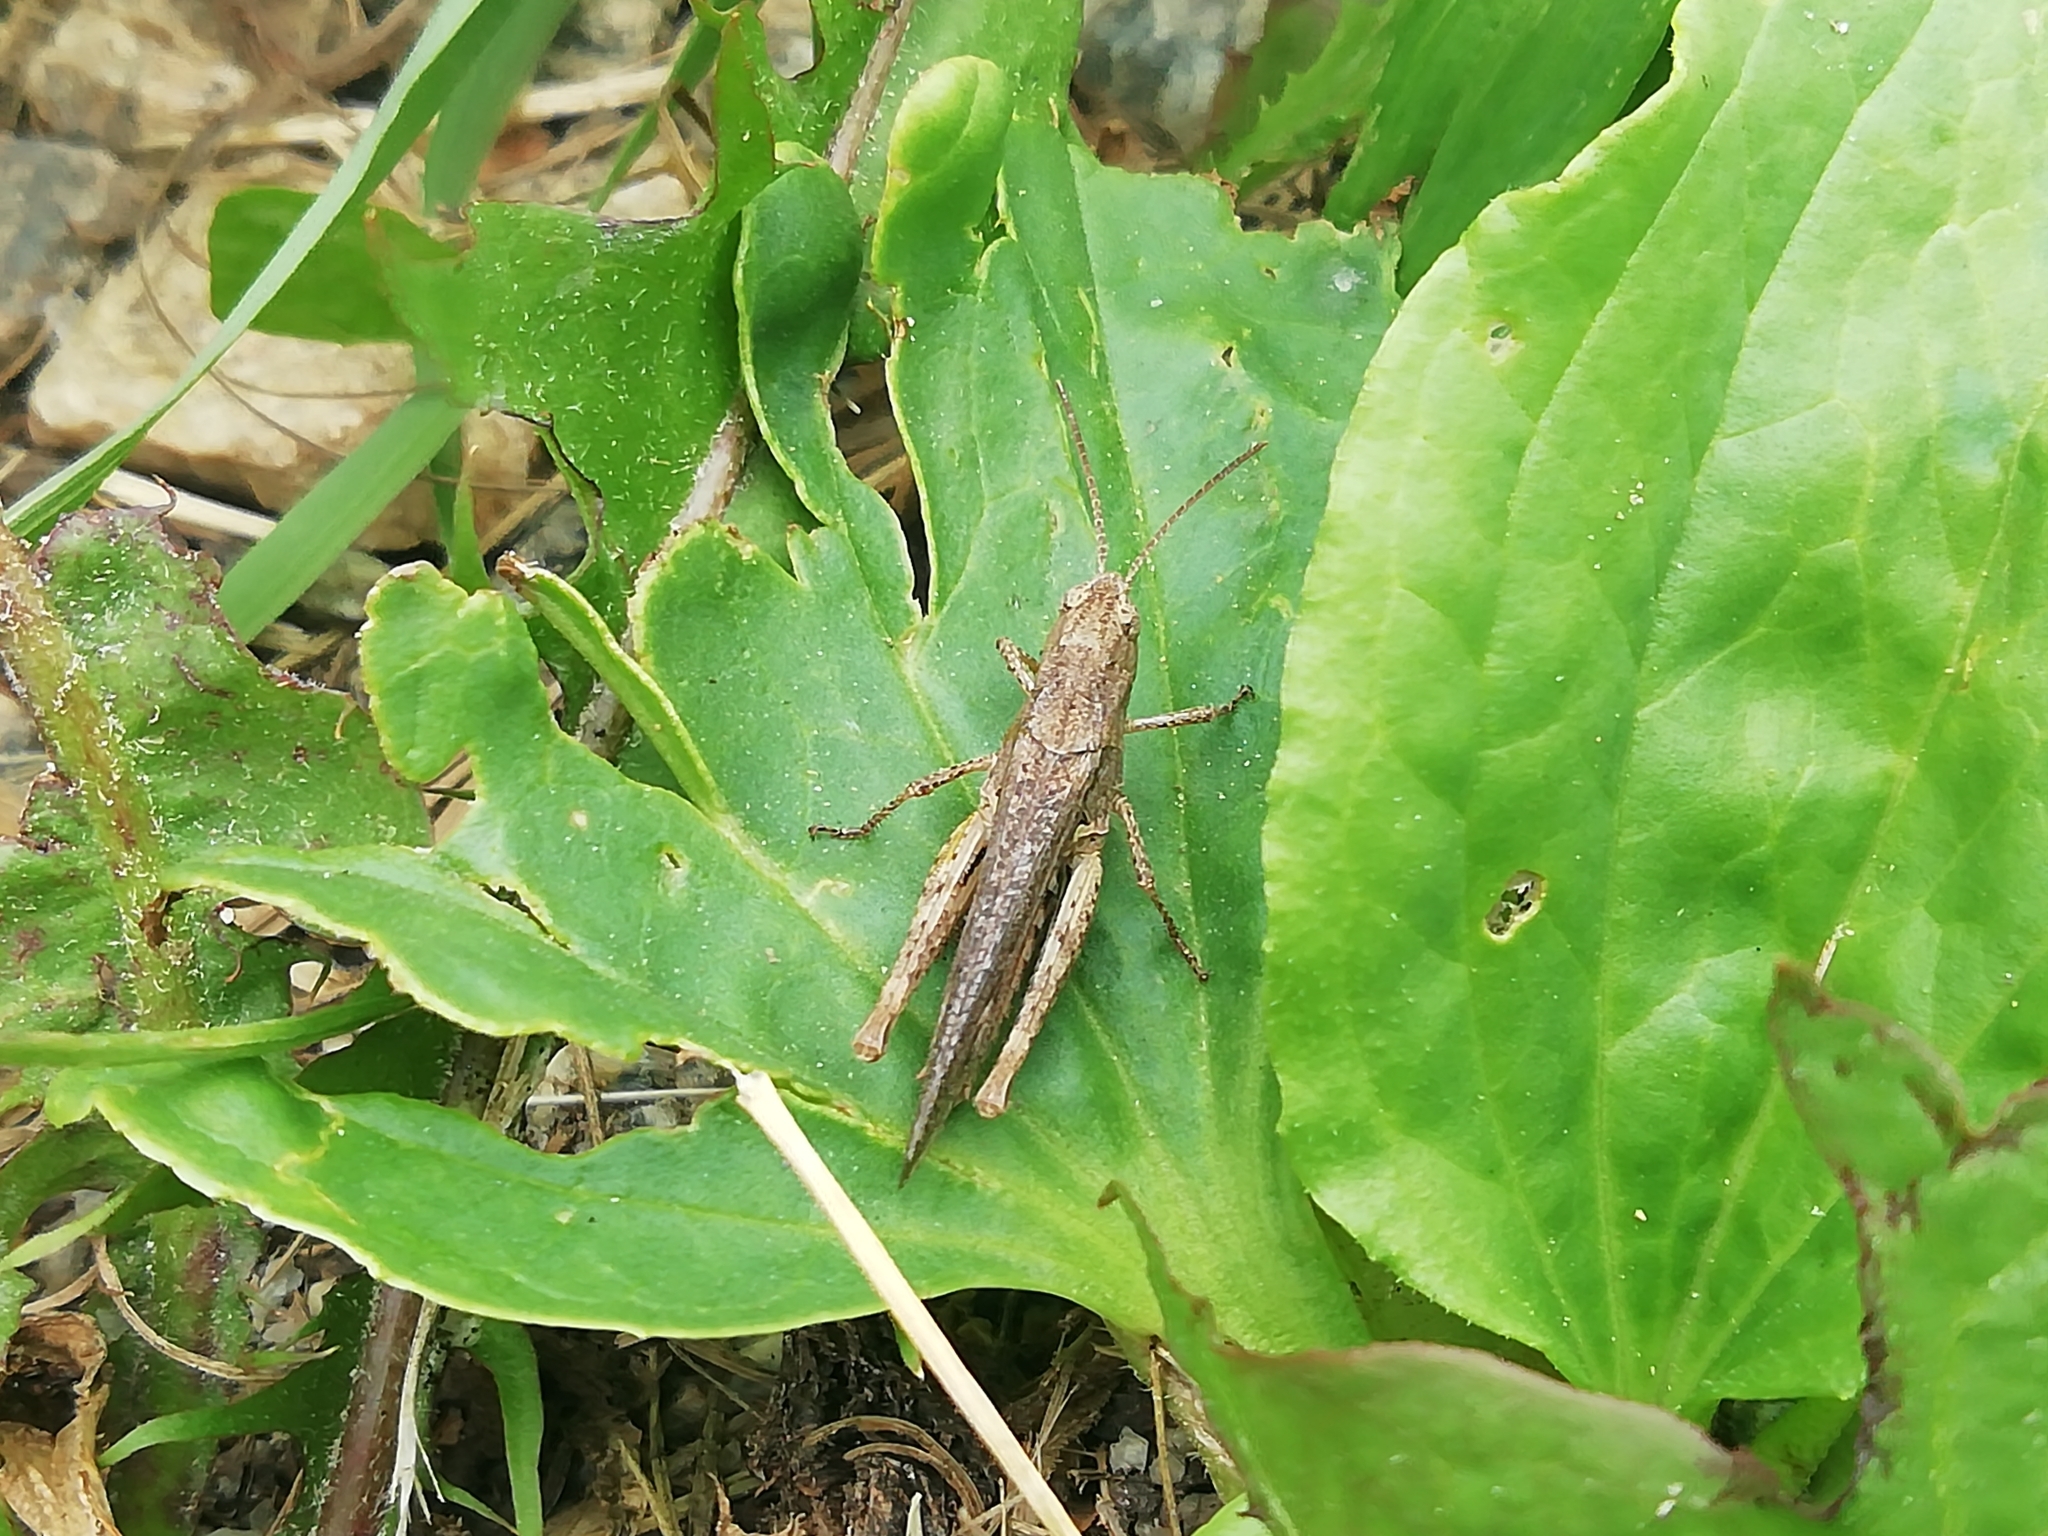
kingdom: Animalia
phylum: Arthropoda
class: Insecta
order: Orthoptera
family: Acrididae
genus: Chorthippus
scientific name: Chorthippus biguttulus
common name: Bow-winged grasshopper
